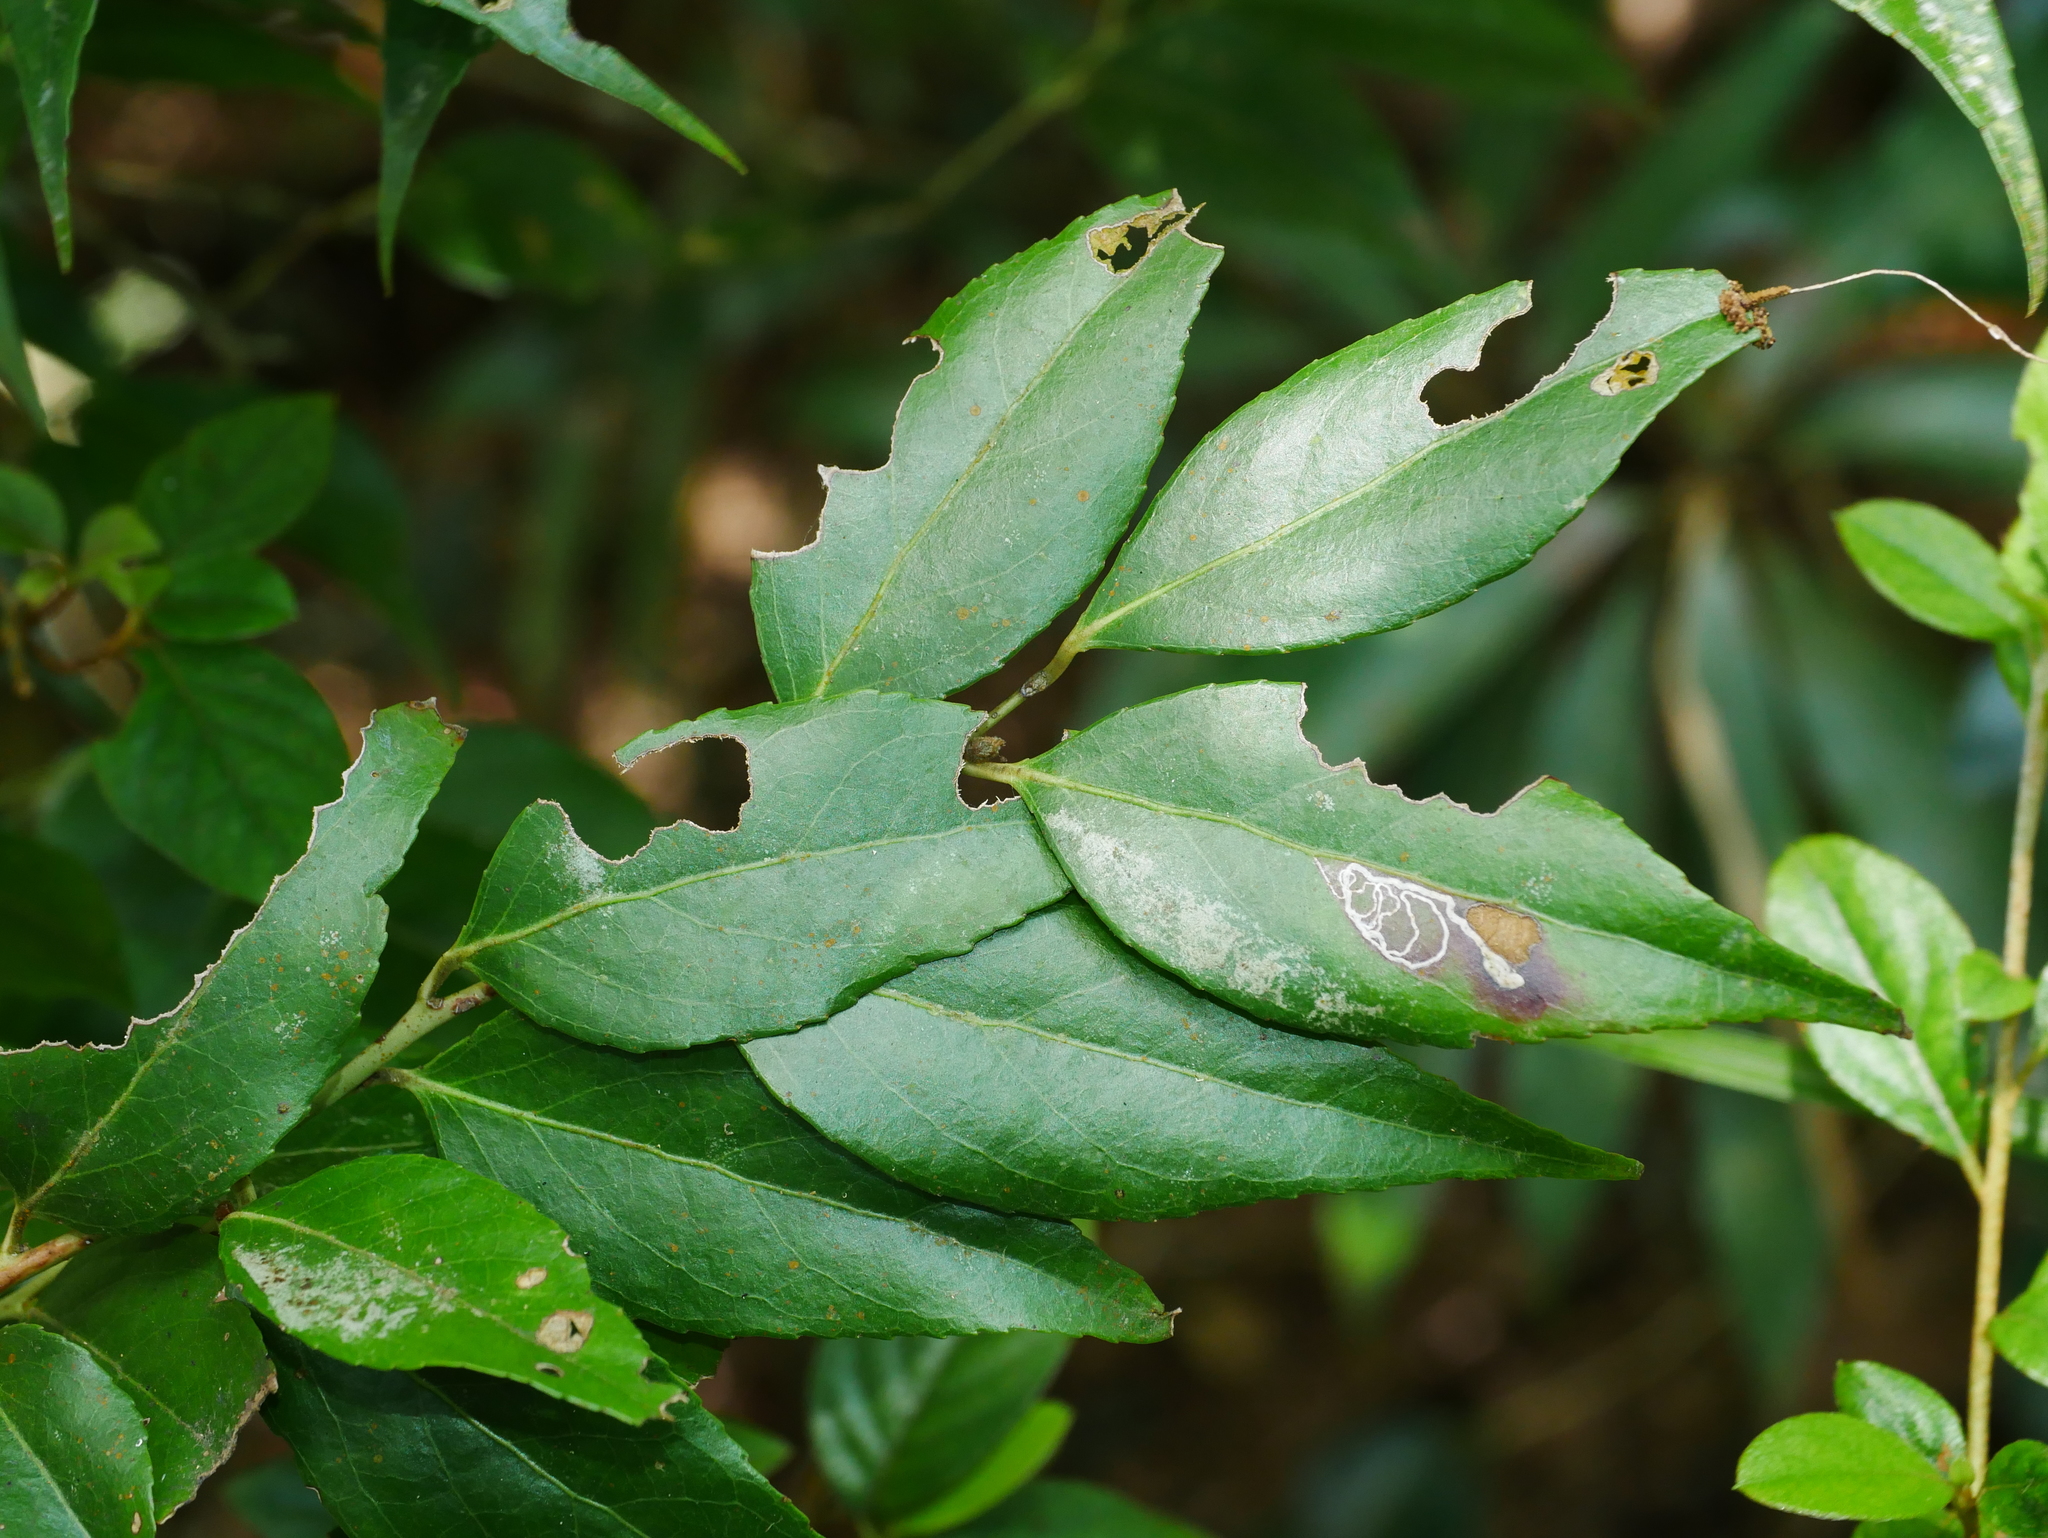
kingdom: Plantae
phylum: Tracheophyta
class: Magnoliopsida
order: Ericales
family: Ericaceae
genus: Vaccinium
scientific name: Vaccinium randaiensis
